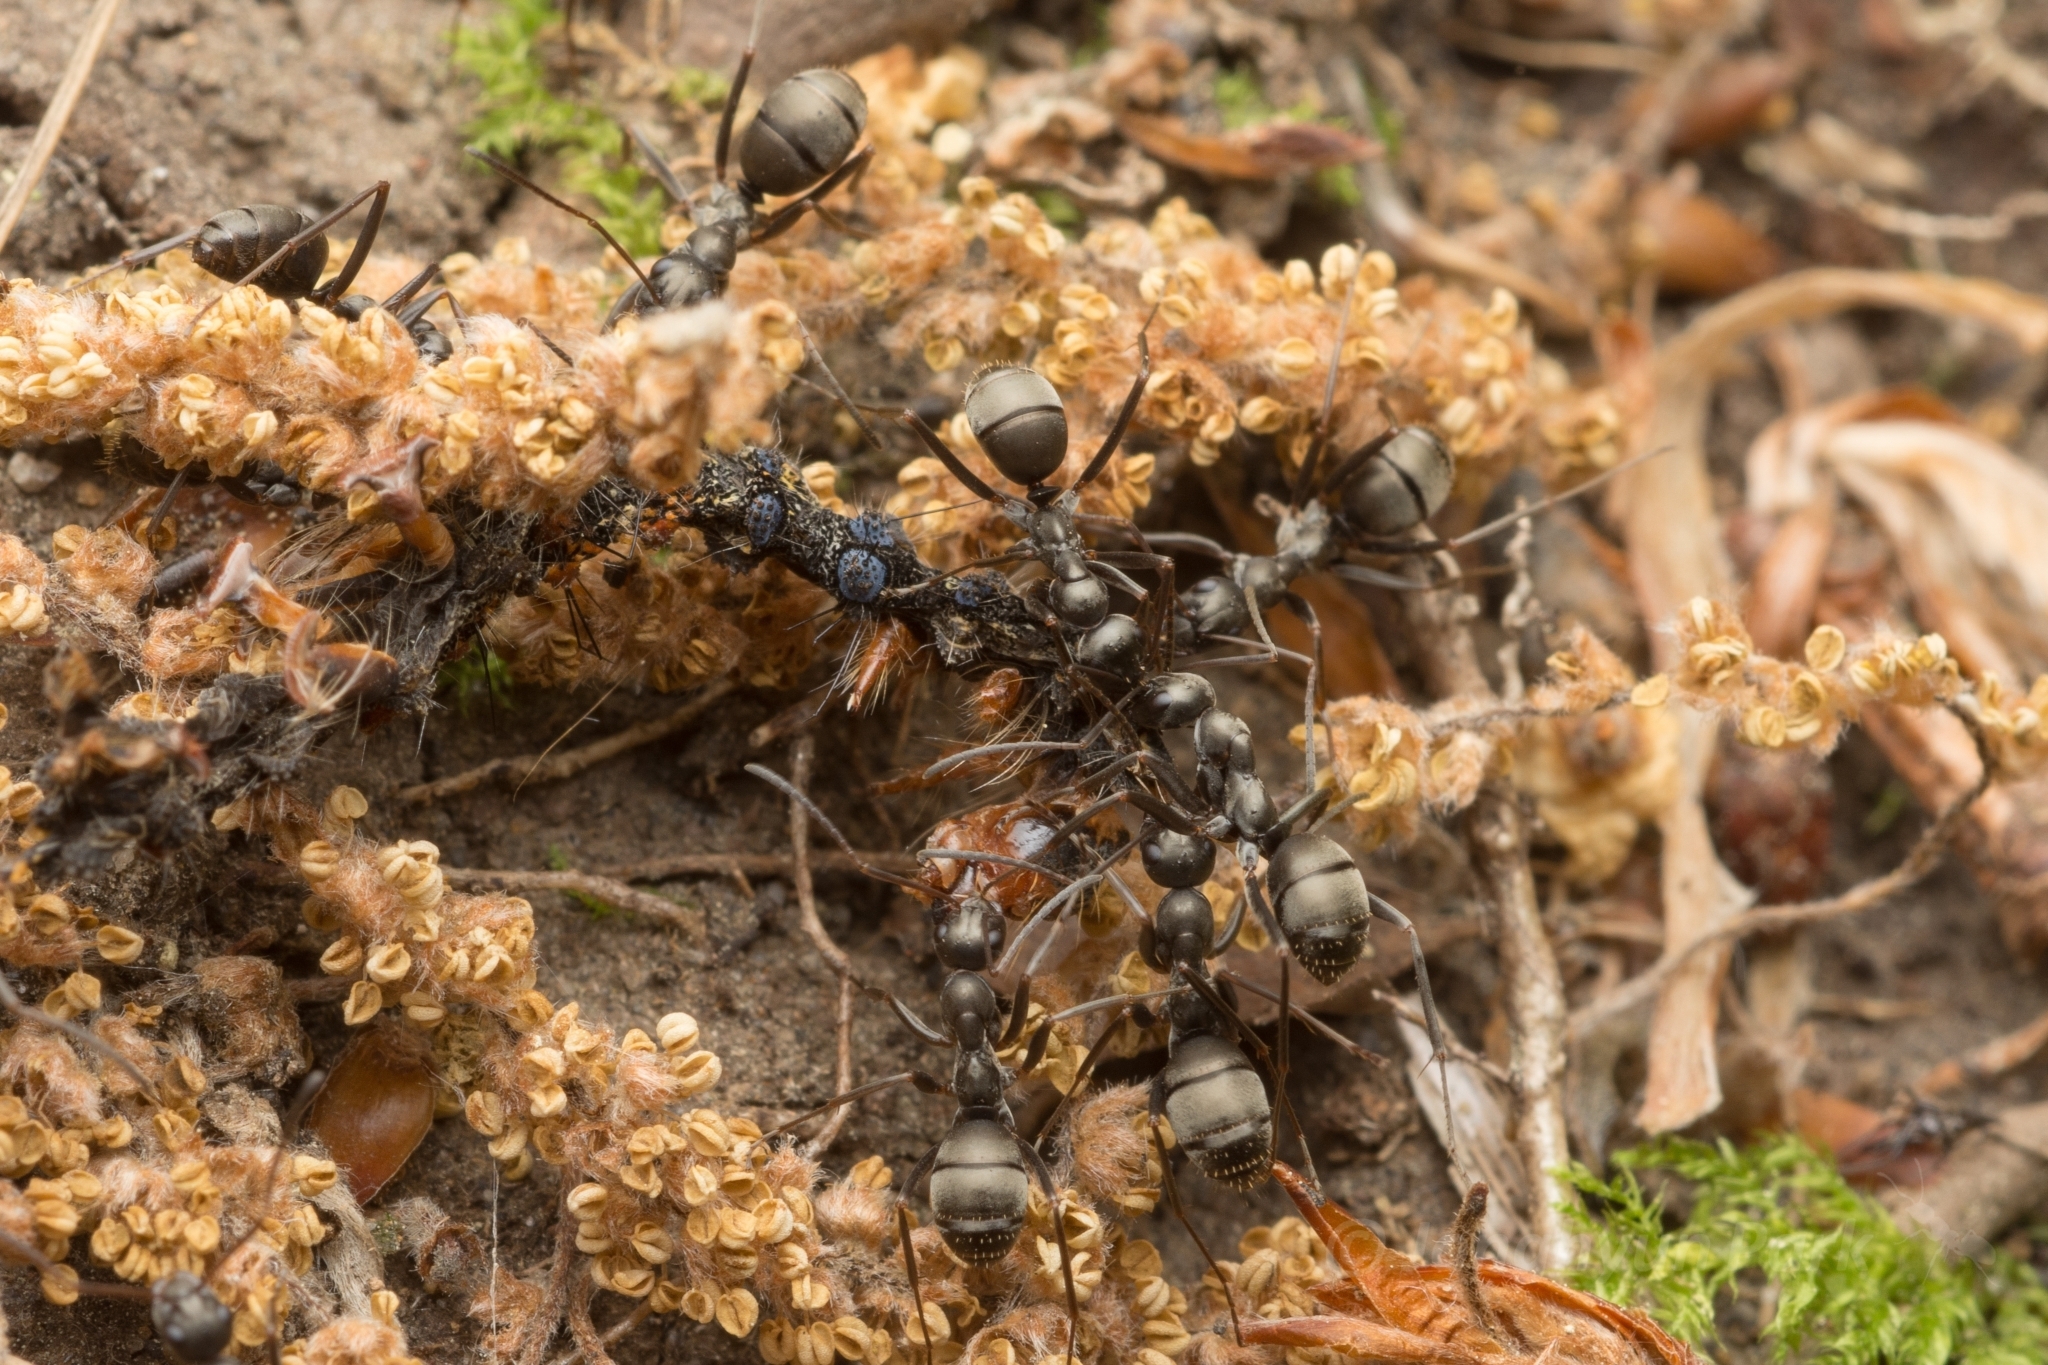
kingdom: Animalia
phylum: Arthropoda
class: Insecta
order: Hymenoptera
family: Formicidae
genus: Formica
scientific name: Formica hayashi
